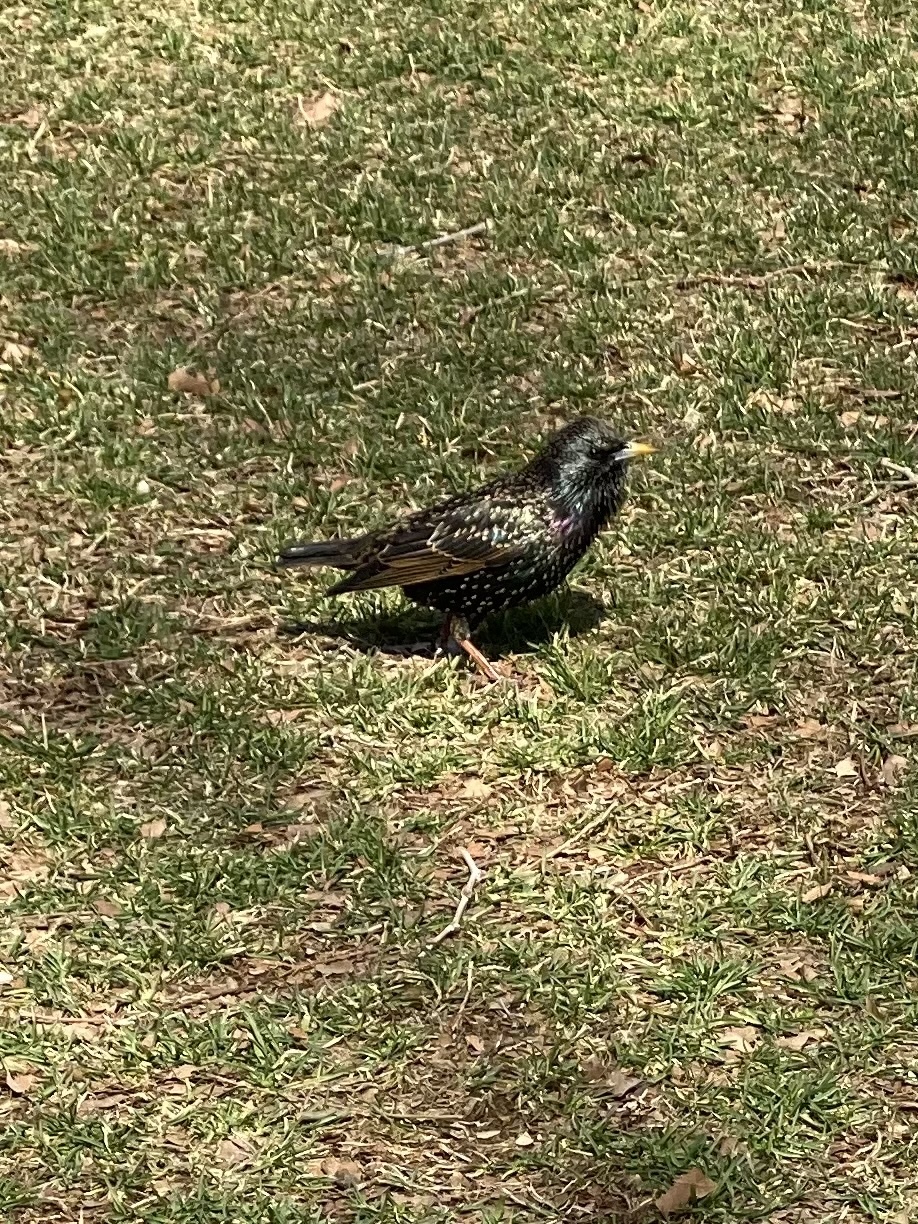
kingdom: Animalia
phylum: Chordata
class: Aves
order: Passeriformes
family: Sturnidae
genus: Sturnus
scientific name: Sturnus vulgaris
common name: Common starling
